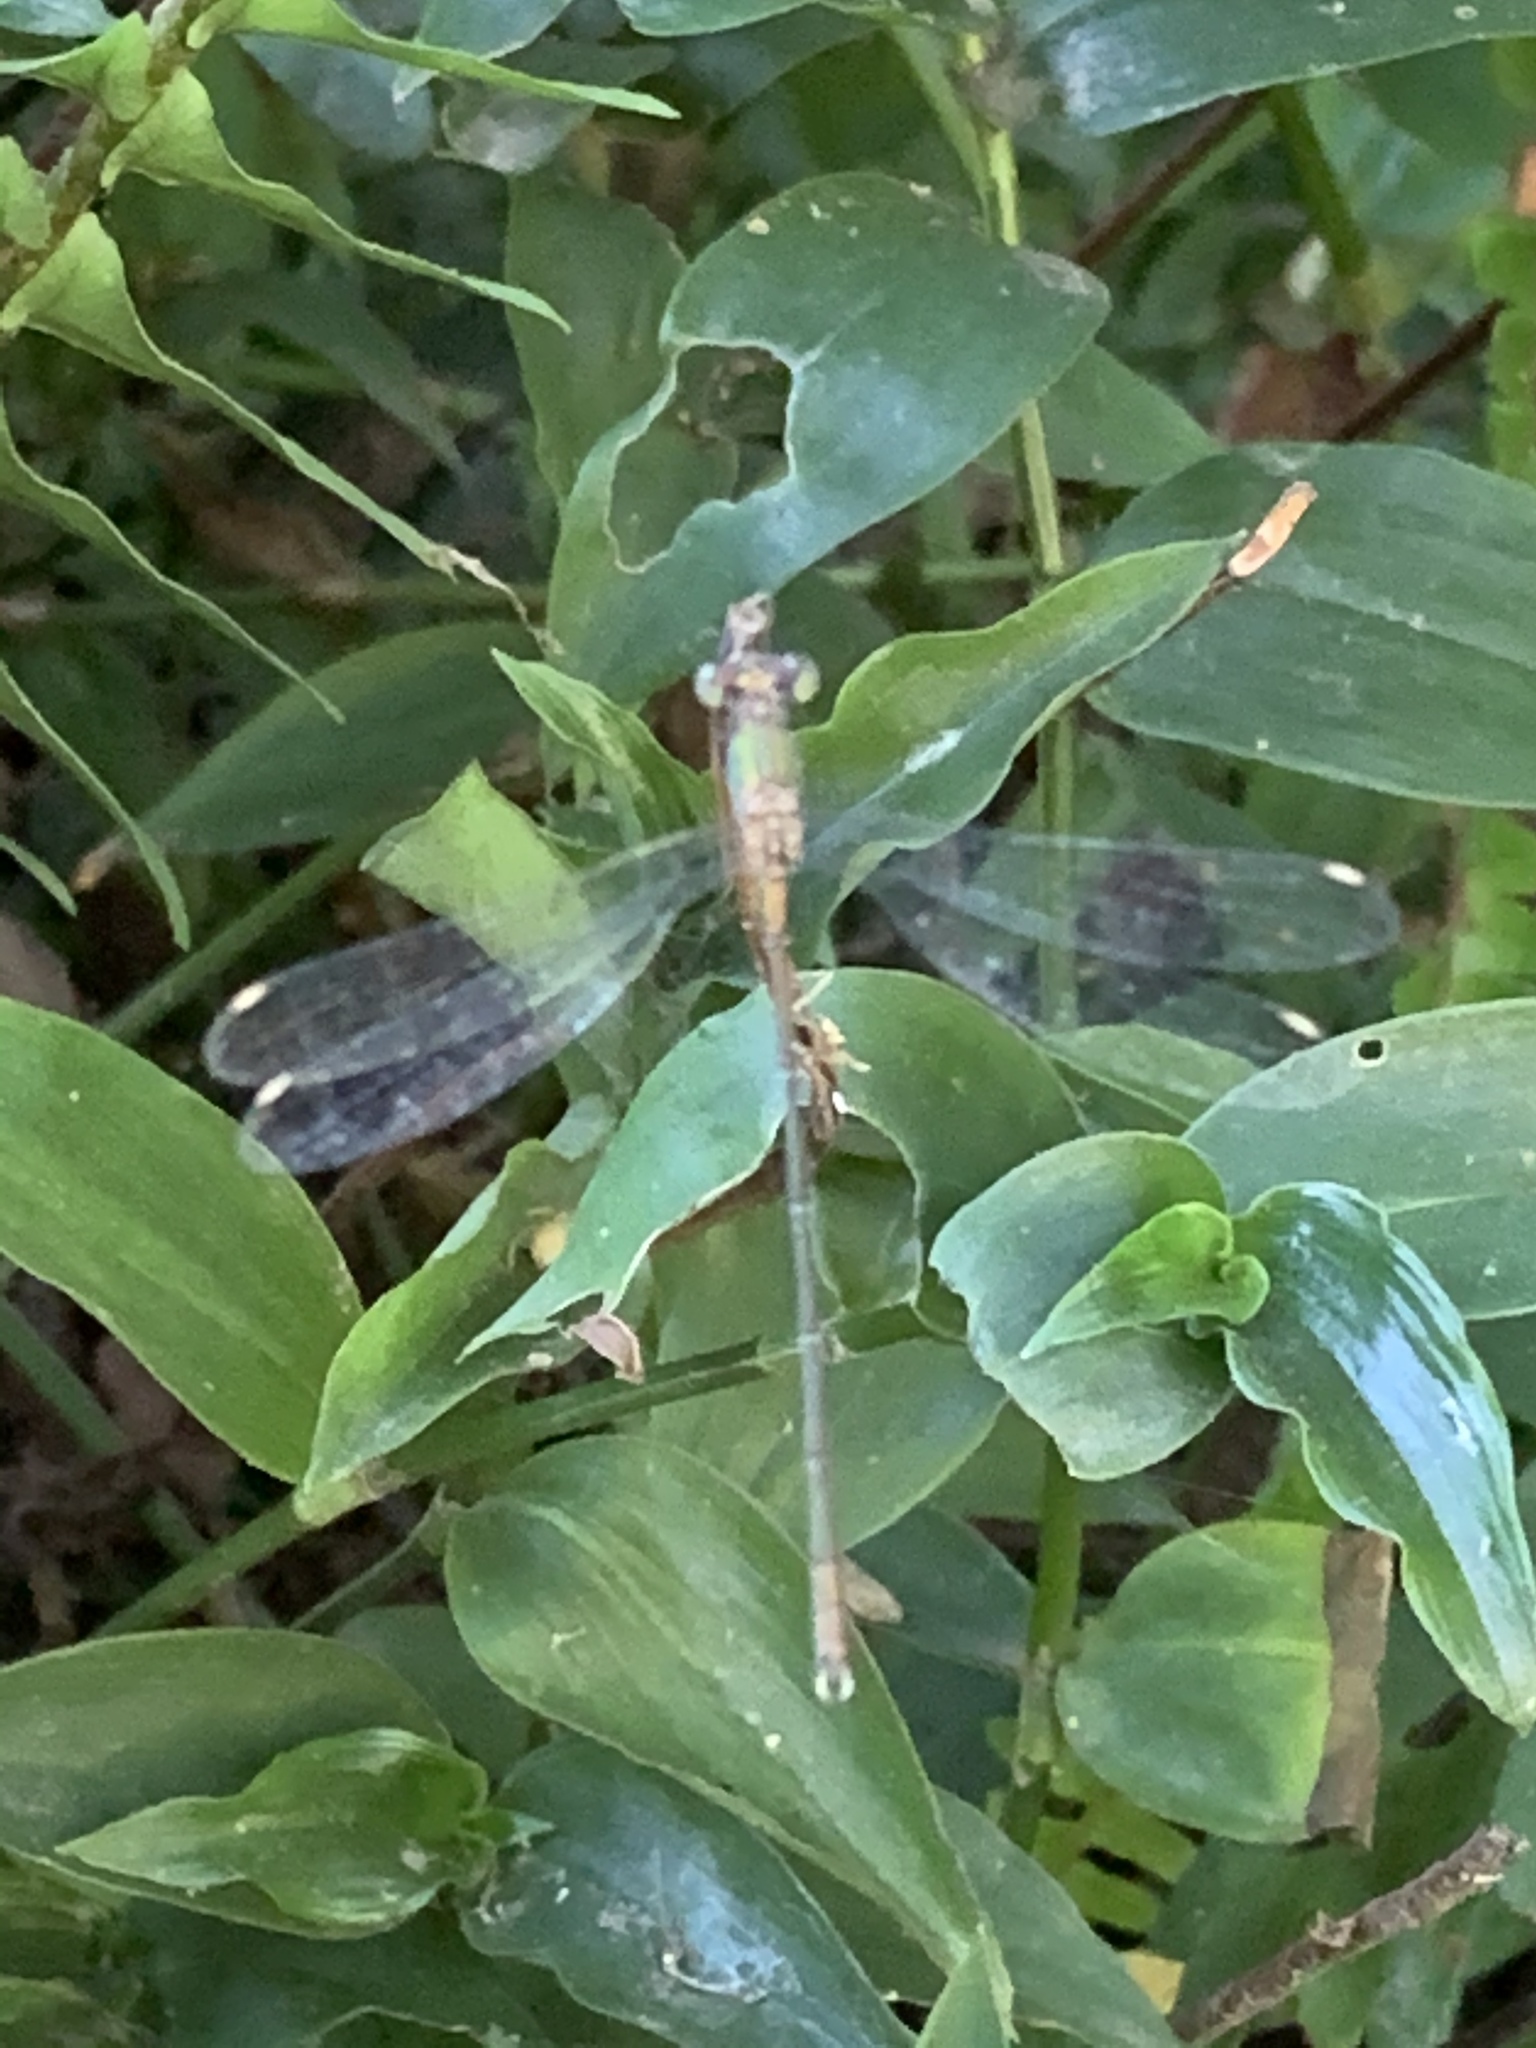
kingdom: Animalia
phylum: Arthropoda
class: Insecta
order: Odonata
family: Lestidae
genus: Chalcolestes
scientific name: Chalcolestes viridis
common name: Green emerald damselfly
